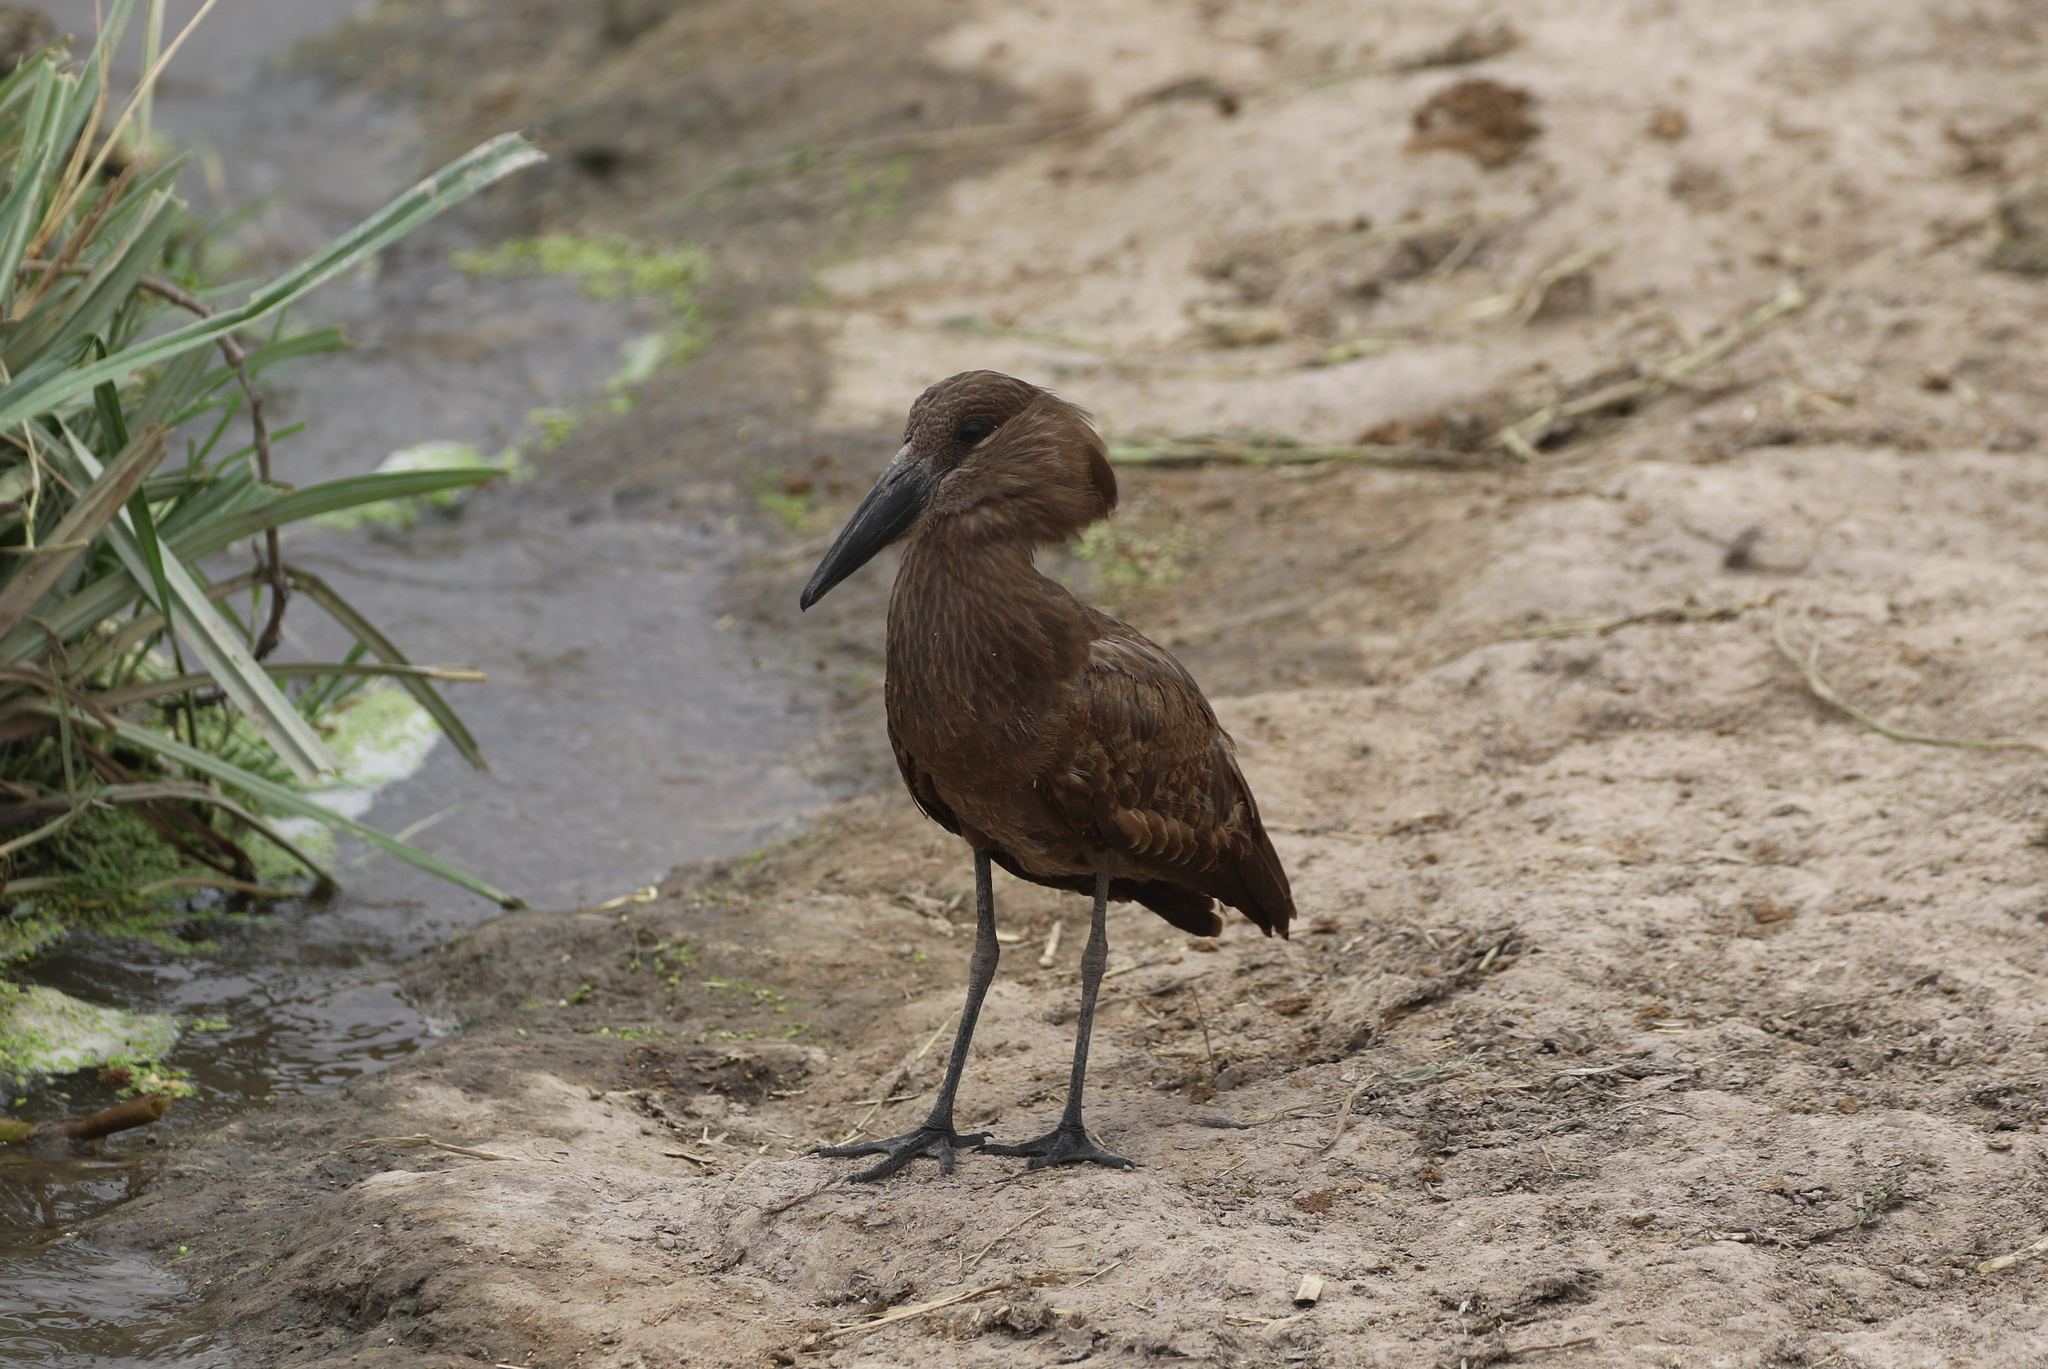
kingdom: Animalia
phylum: Chordata
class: Aves
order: Pelecaniformes
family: Scopidae
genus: Scopus
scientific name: Scopus umbretta
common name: Hamerkop
